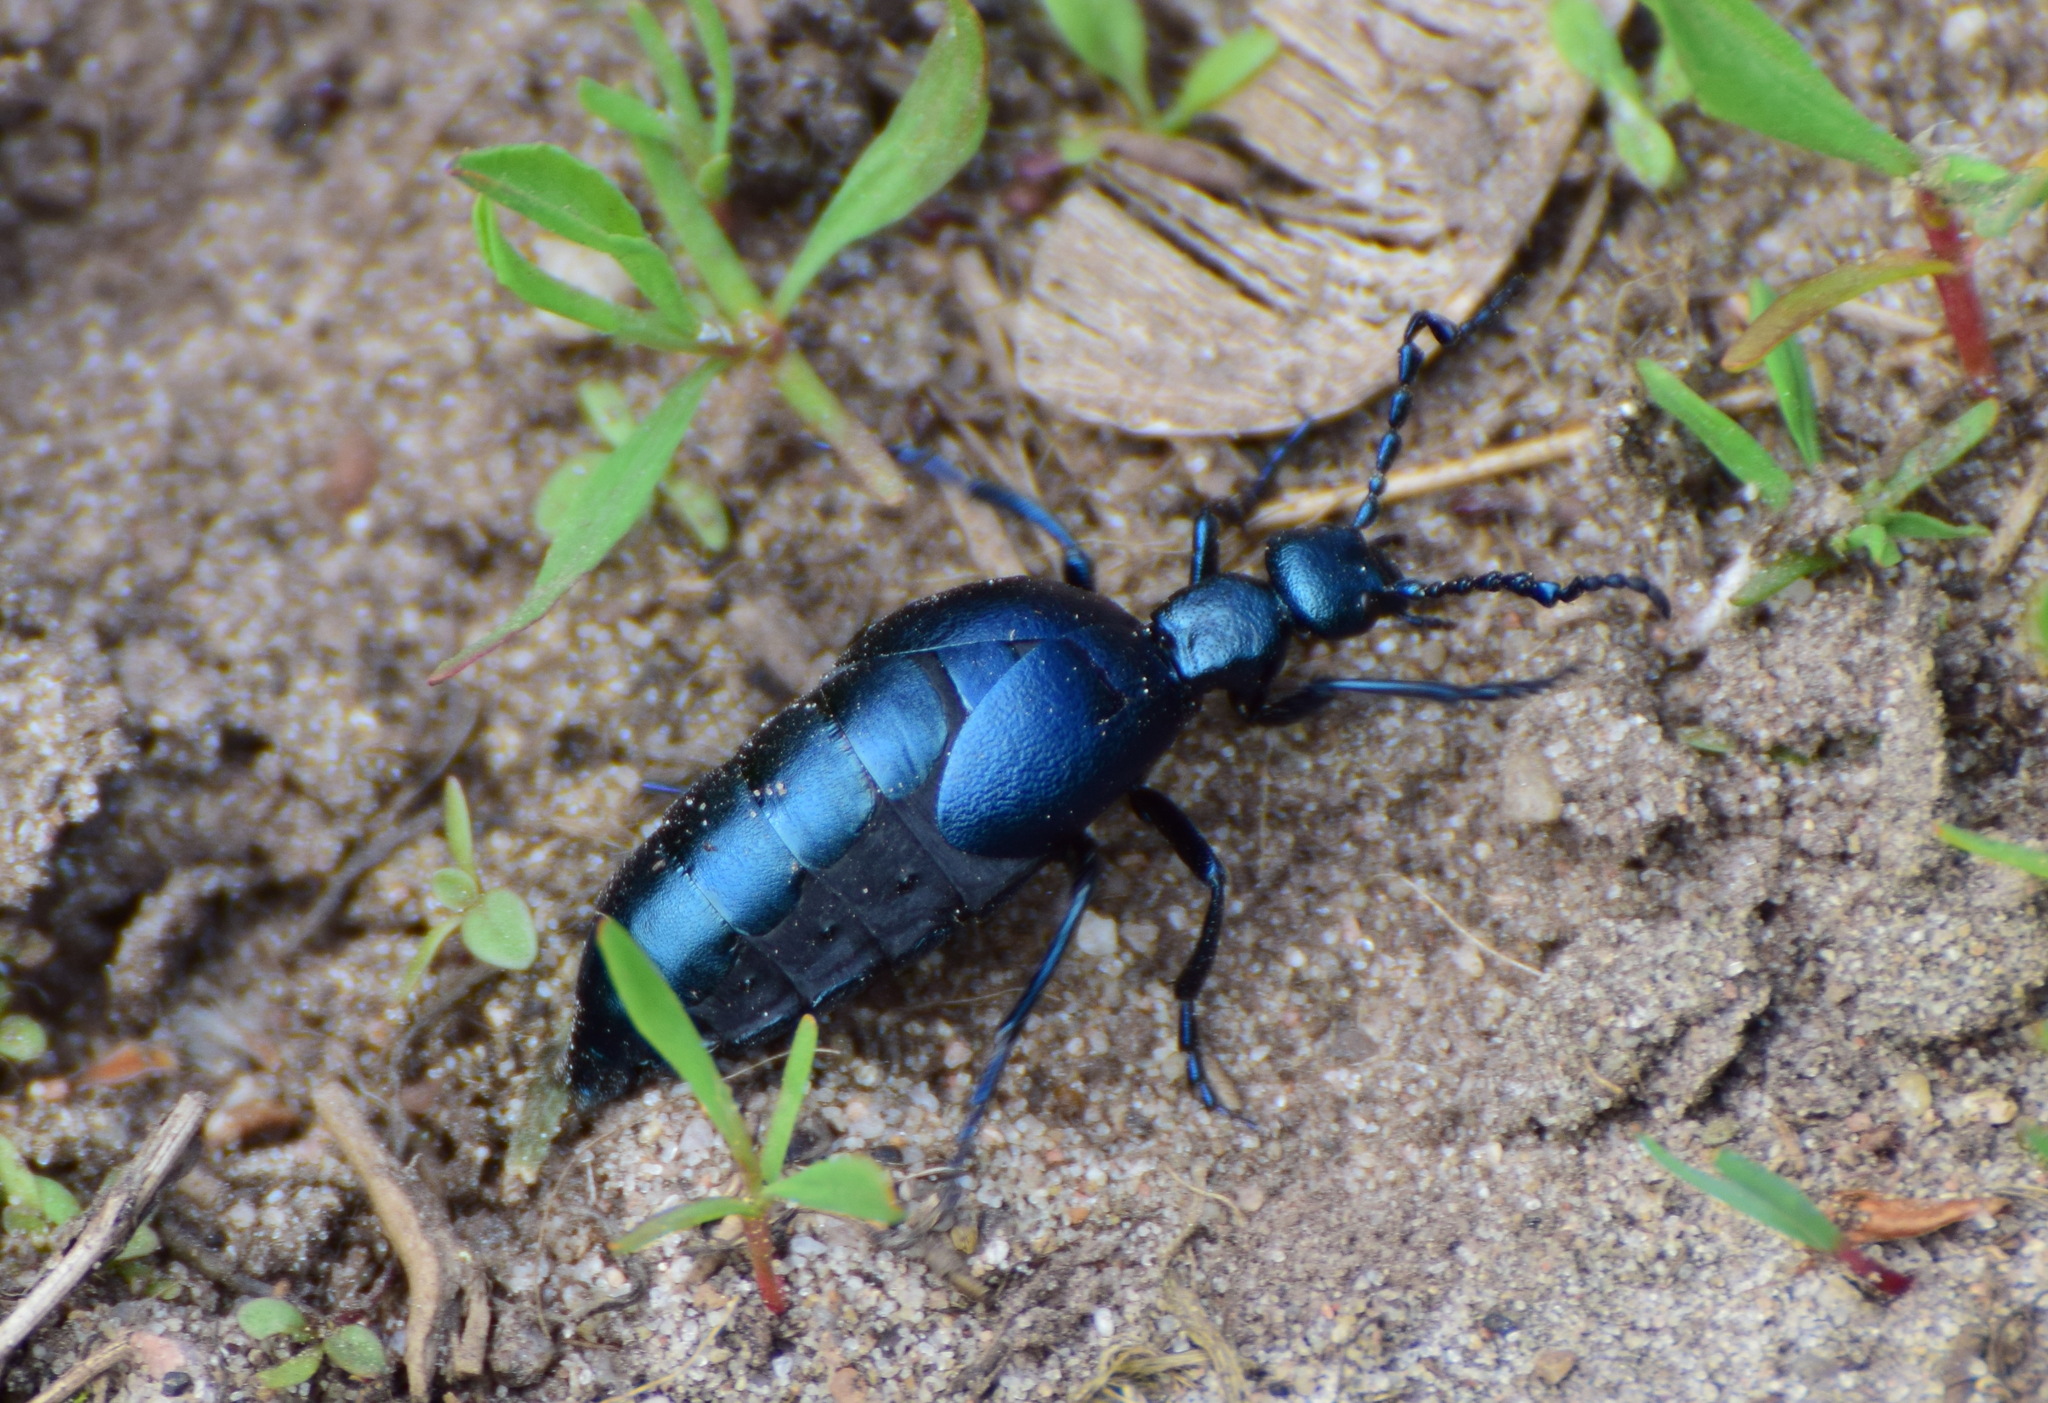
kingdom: Animalia
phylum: Arthropoda
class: Insecta
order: Coleoptera
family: Meloidae
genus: Meloe
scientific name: Meloe violaceus
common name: Violet oil-beetle
